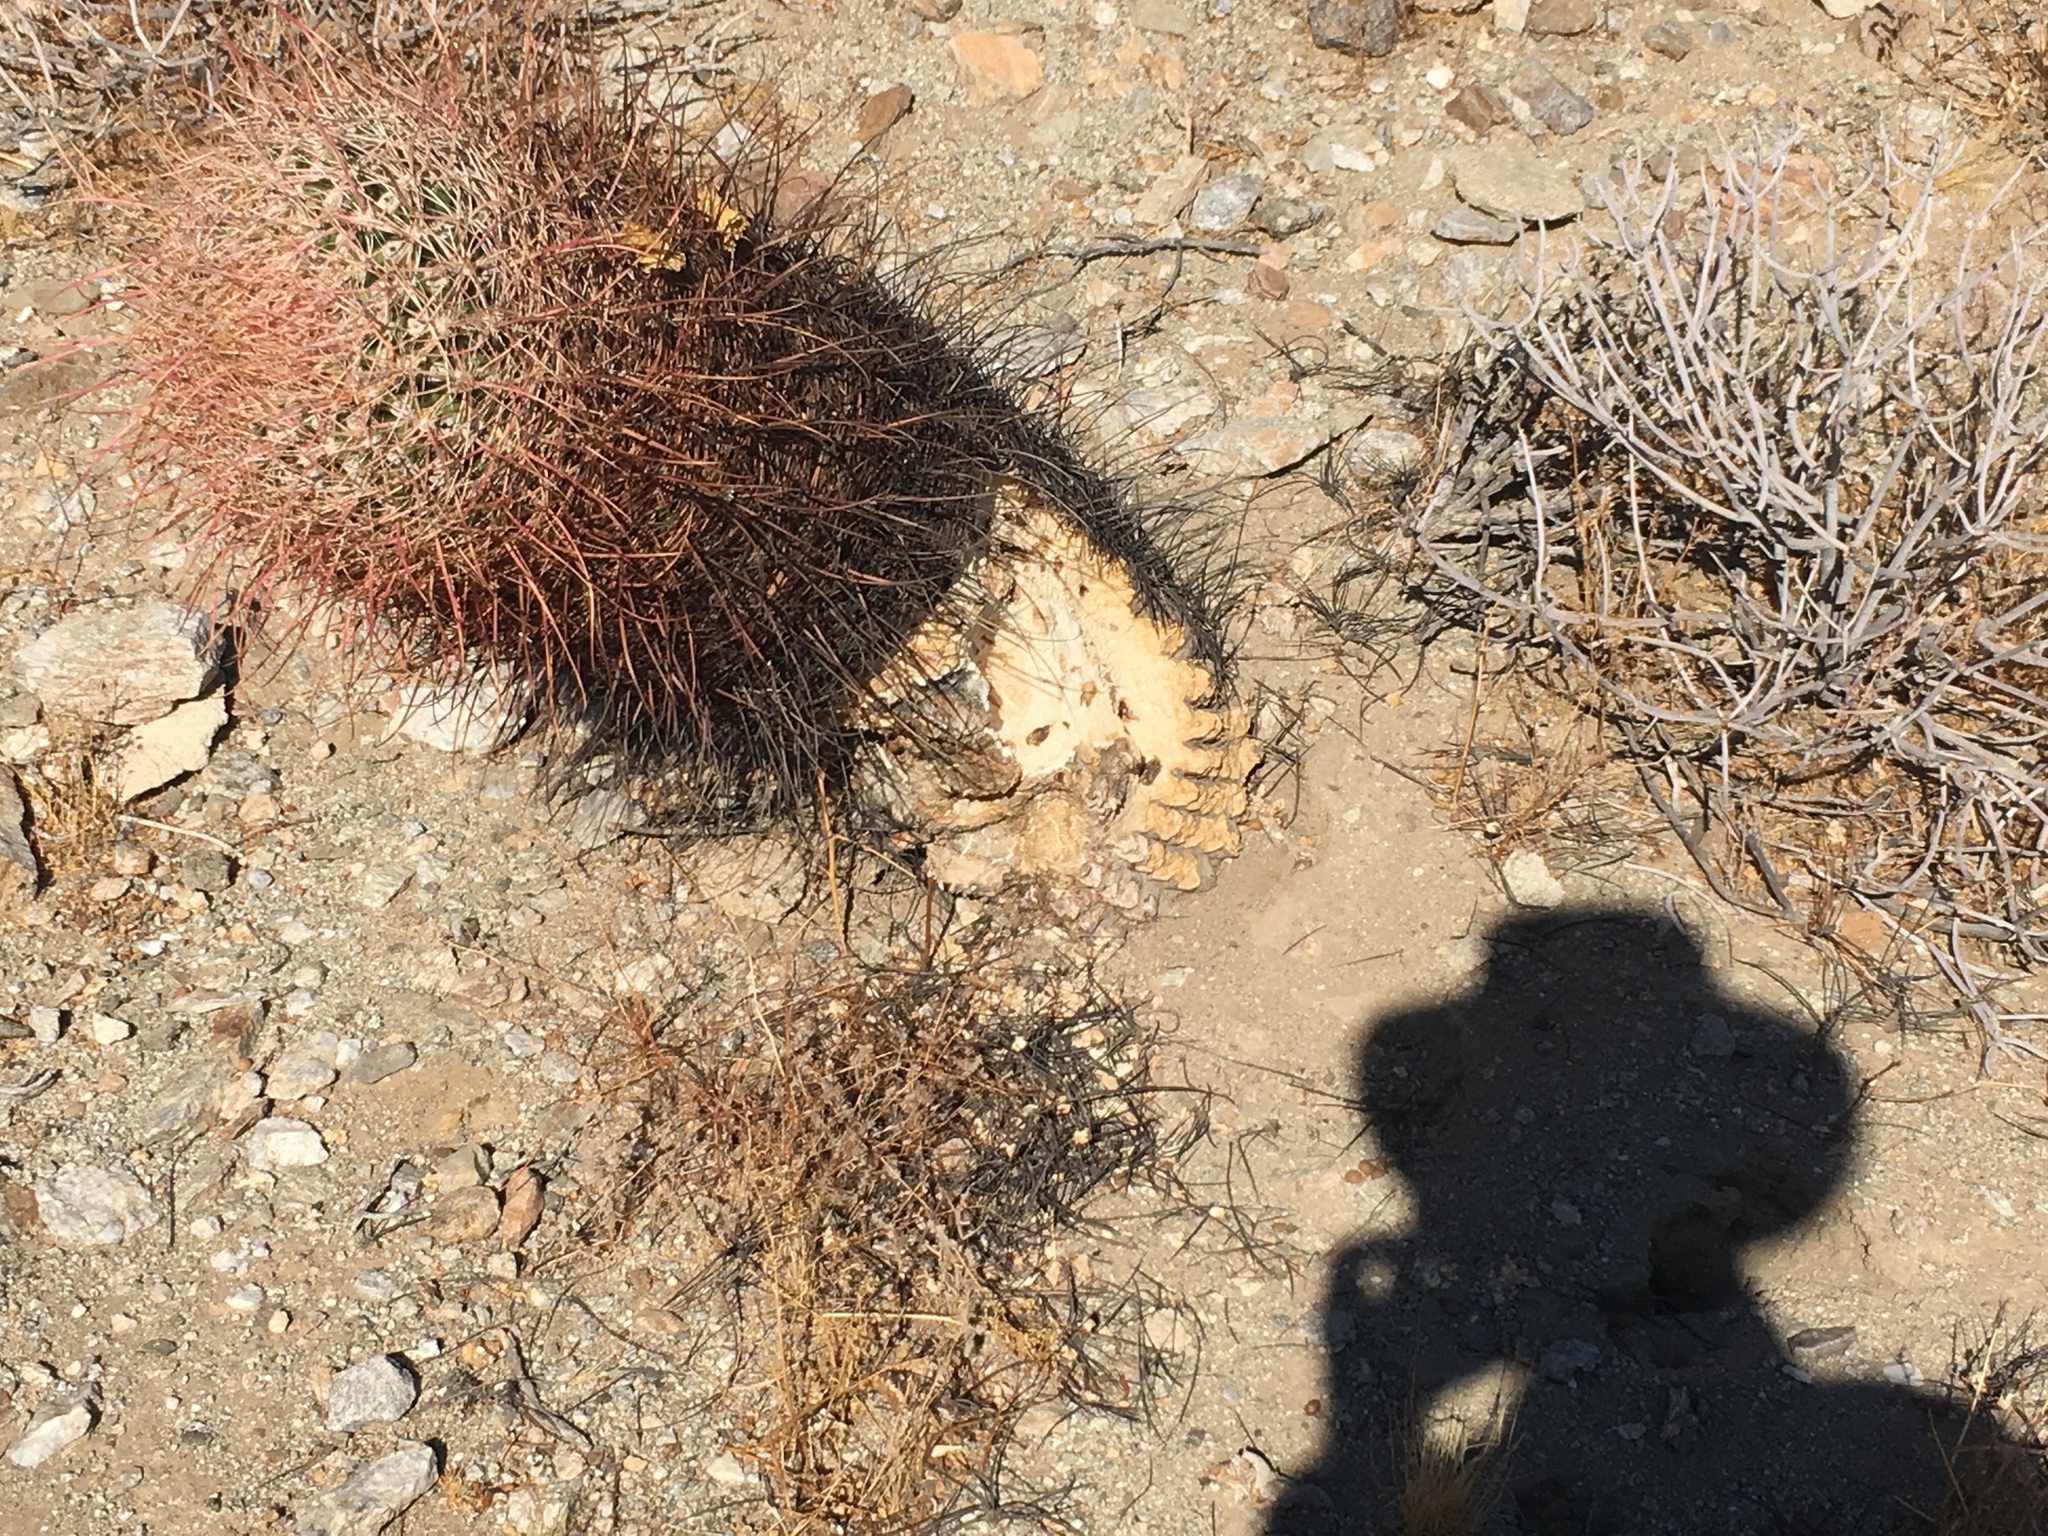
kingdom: Plantae
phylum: Tracheophyta
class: Magnoliopsida
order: Caryophyllales
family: Cactaceae
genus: Ferocactus
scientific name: Ferocactus cylindraceus
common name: California barrel cactus
